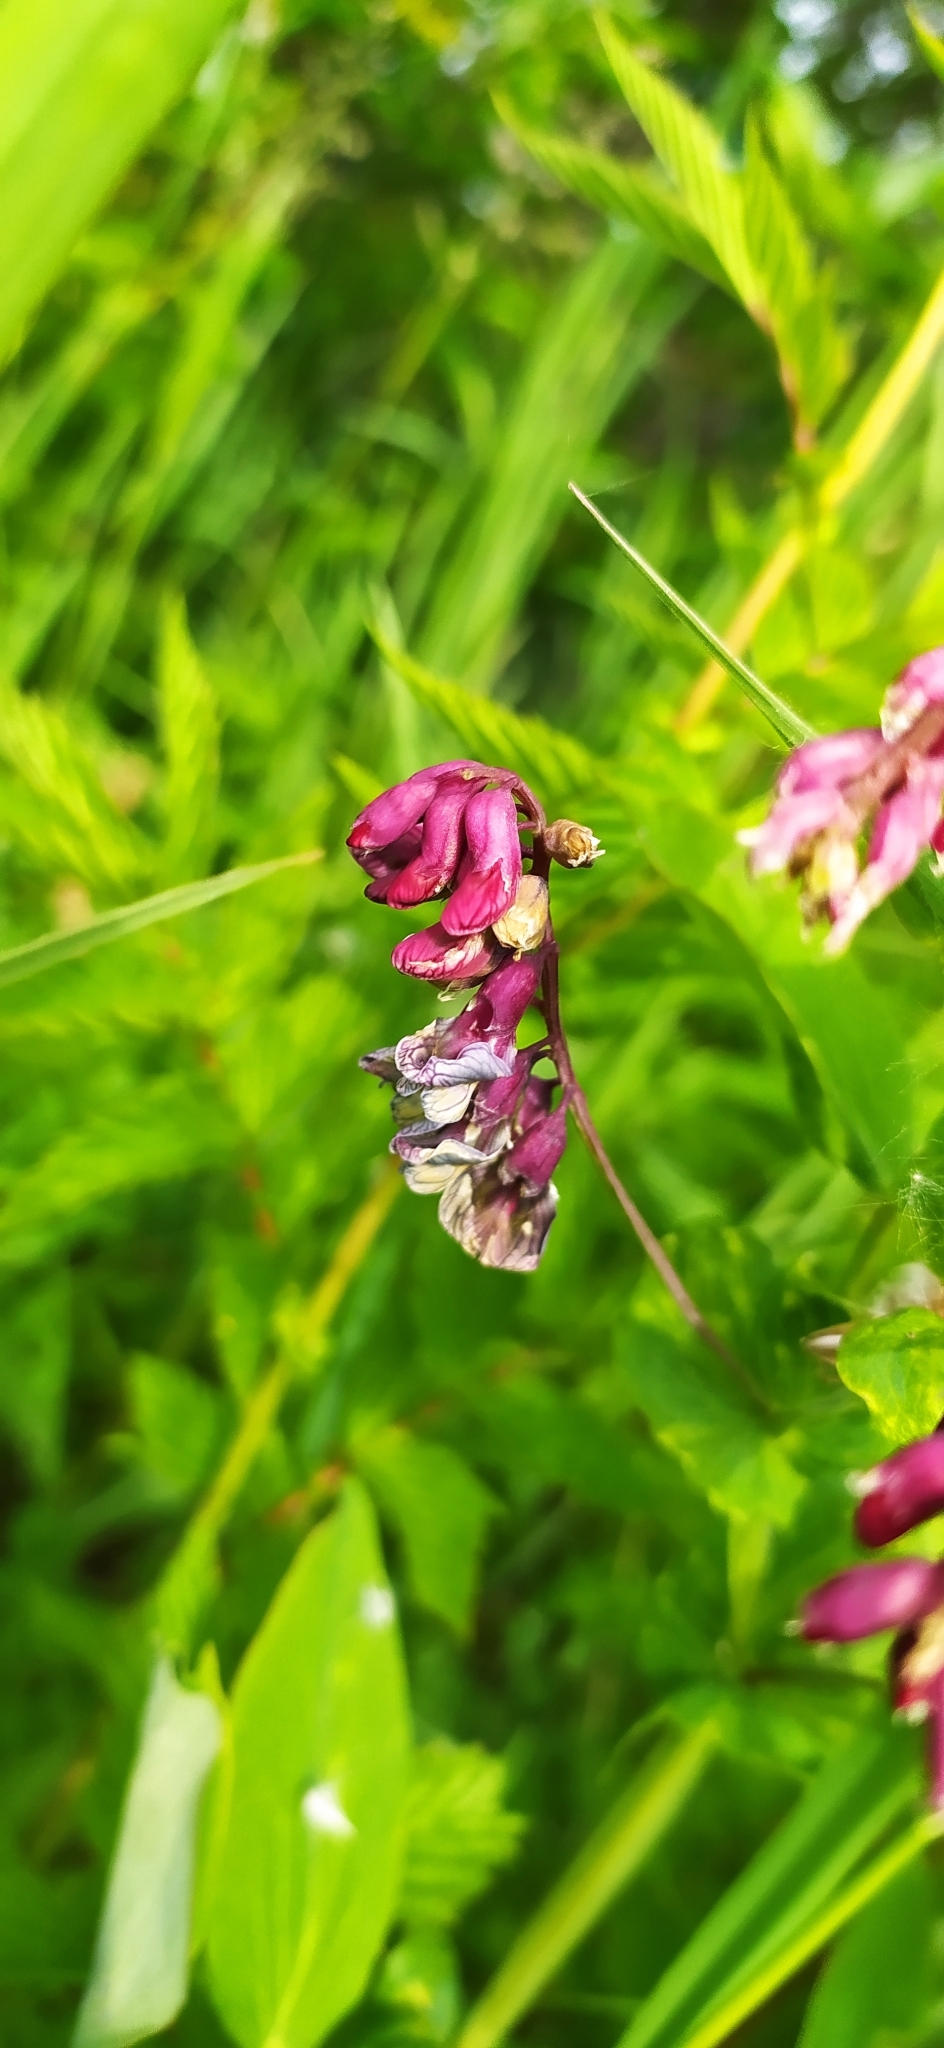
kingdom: Plantae
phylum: Tracheophyta
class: Magnoliopsida
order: Fabales
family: Fabaceae
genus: Lathyrus
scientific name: Lathyrus pisiformis
